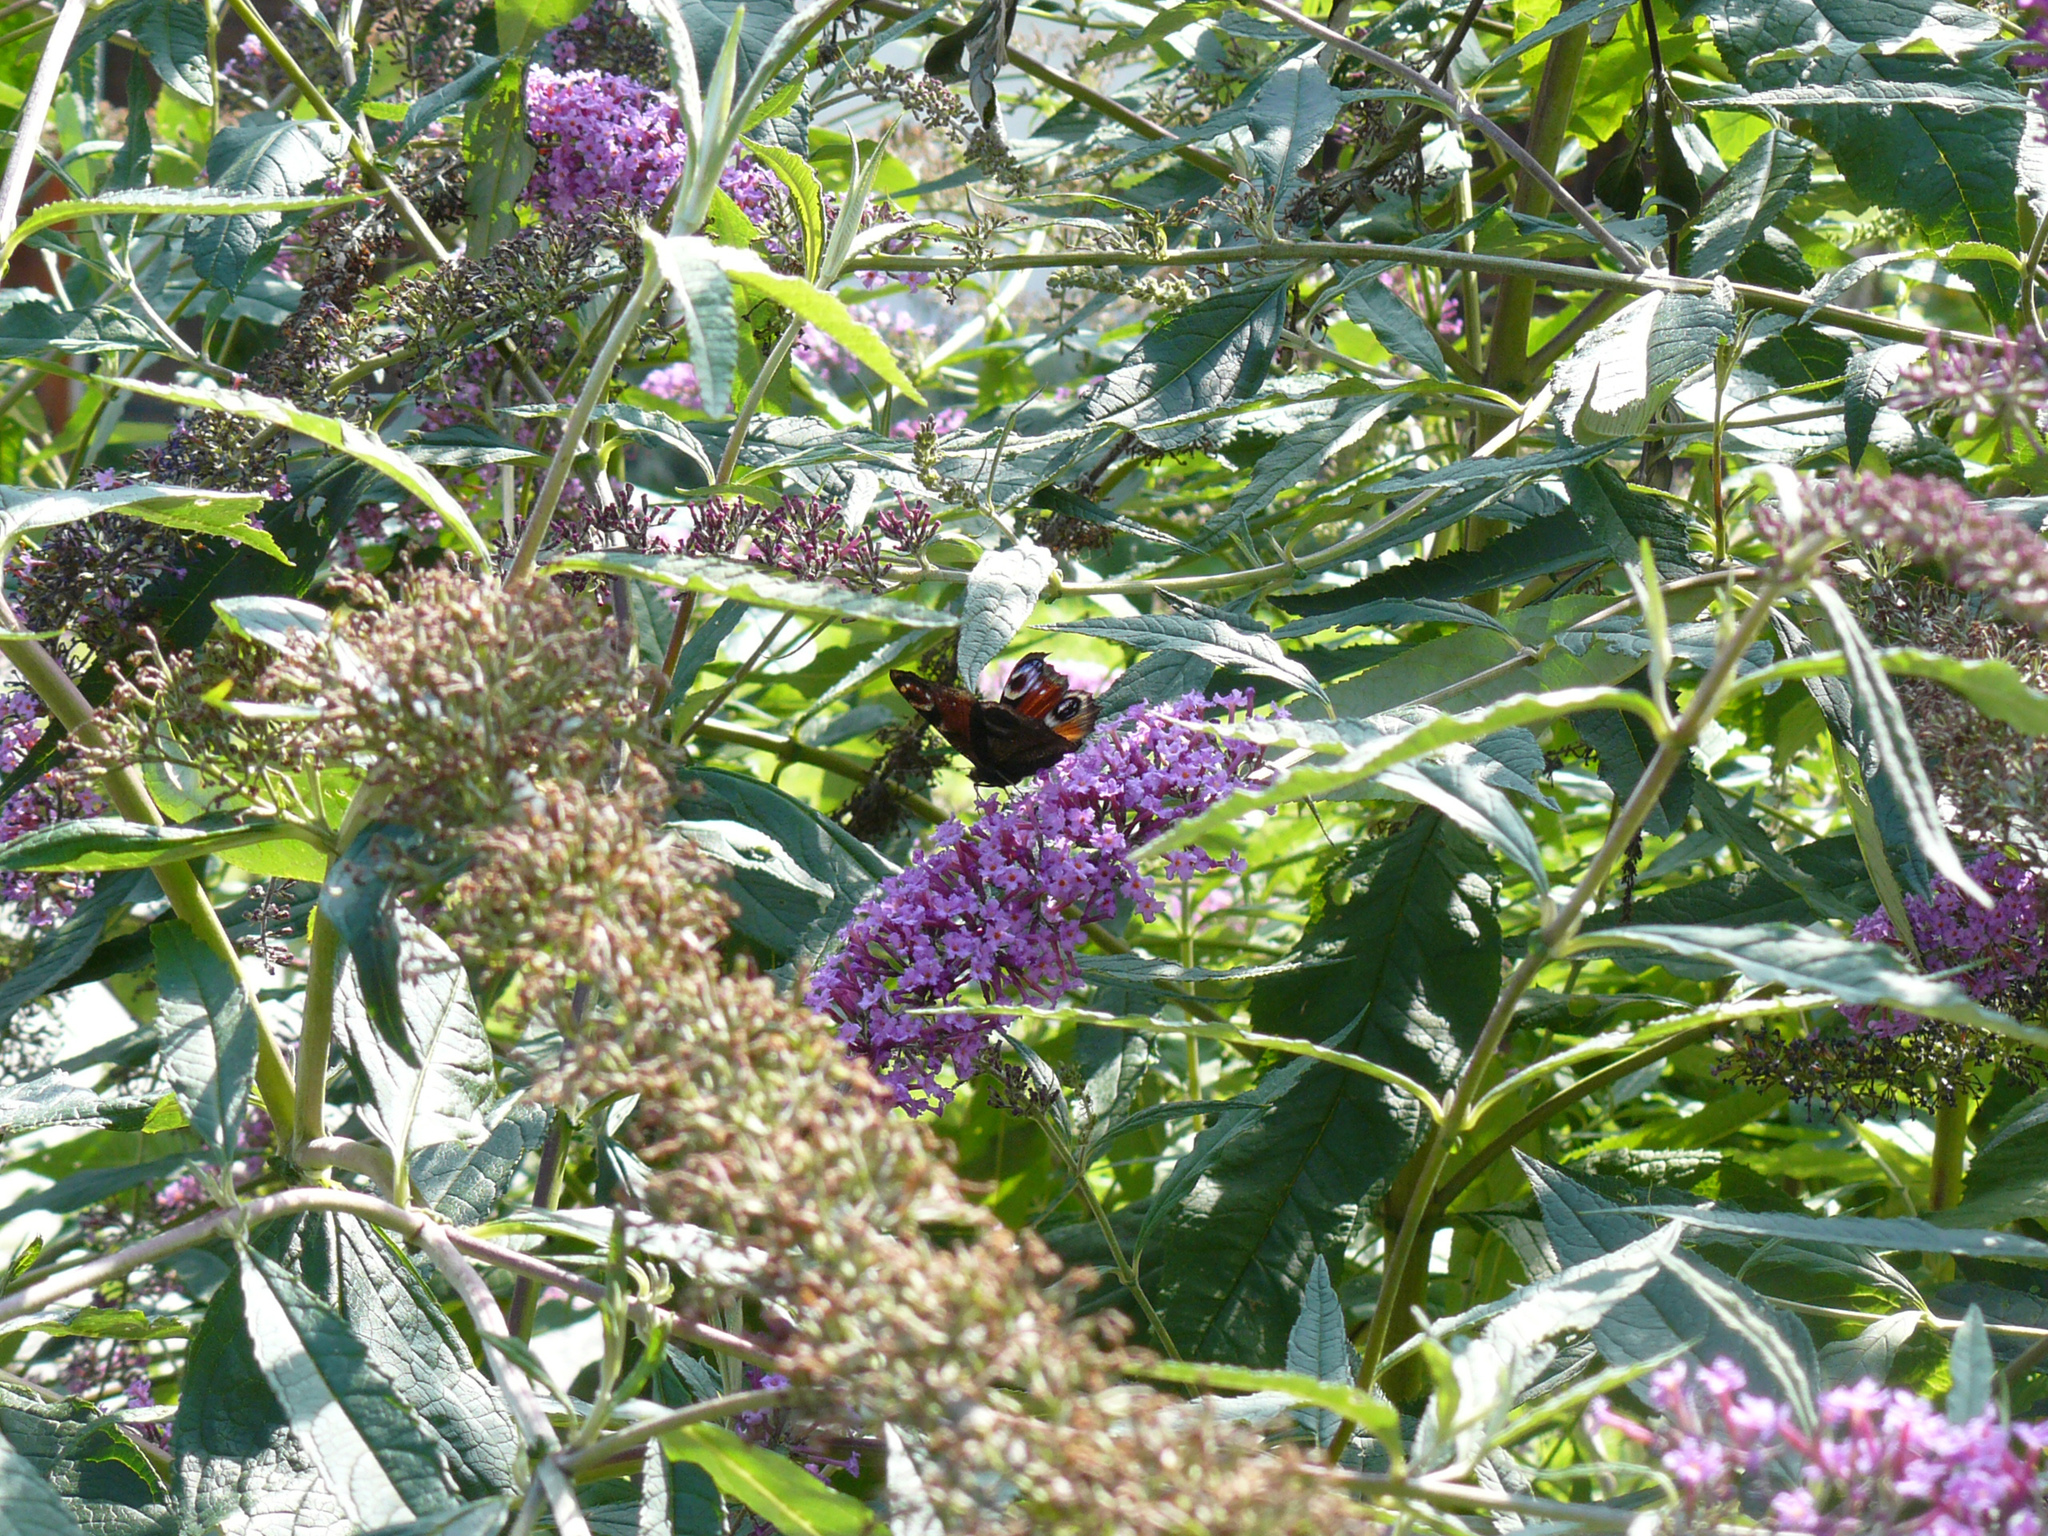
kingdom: Animalia
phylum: Arthropoda
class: Insecta
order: Lepidoptera
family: Nymphalidae
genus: Aglais
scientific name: Aglais io
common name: Peacock
